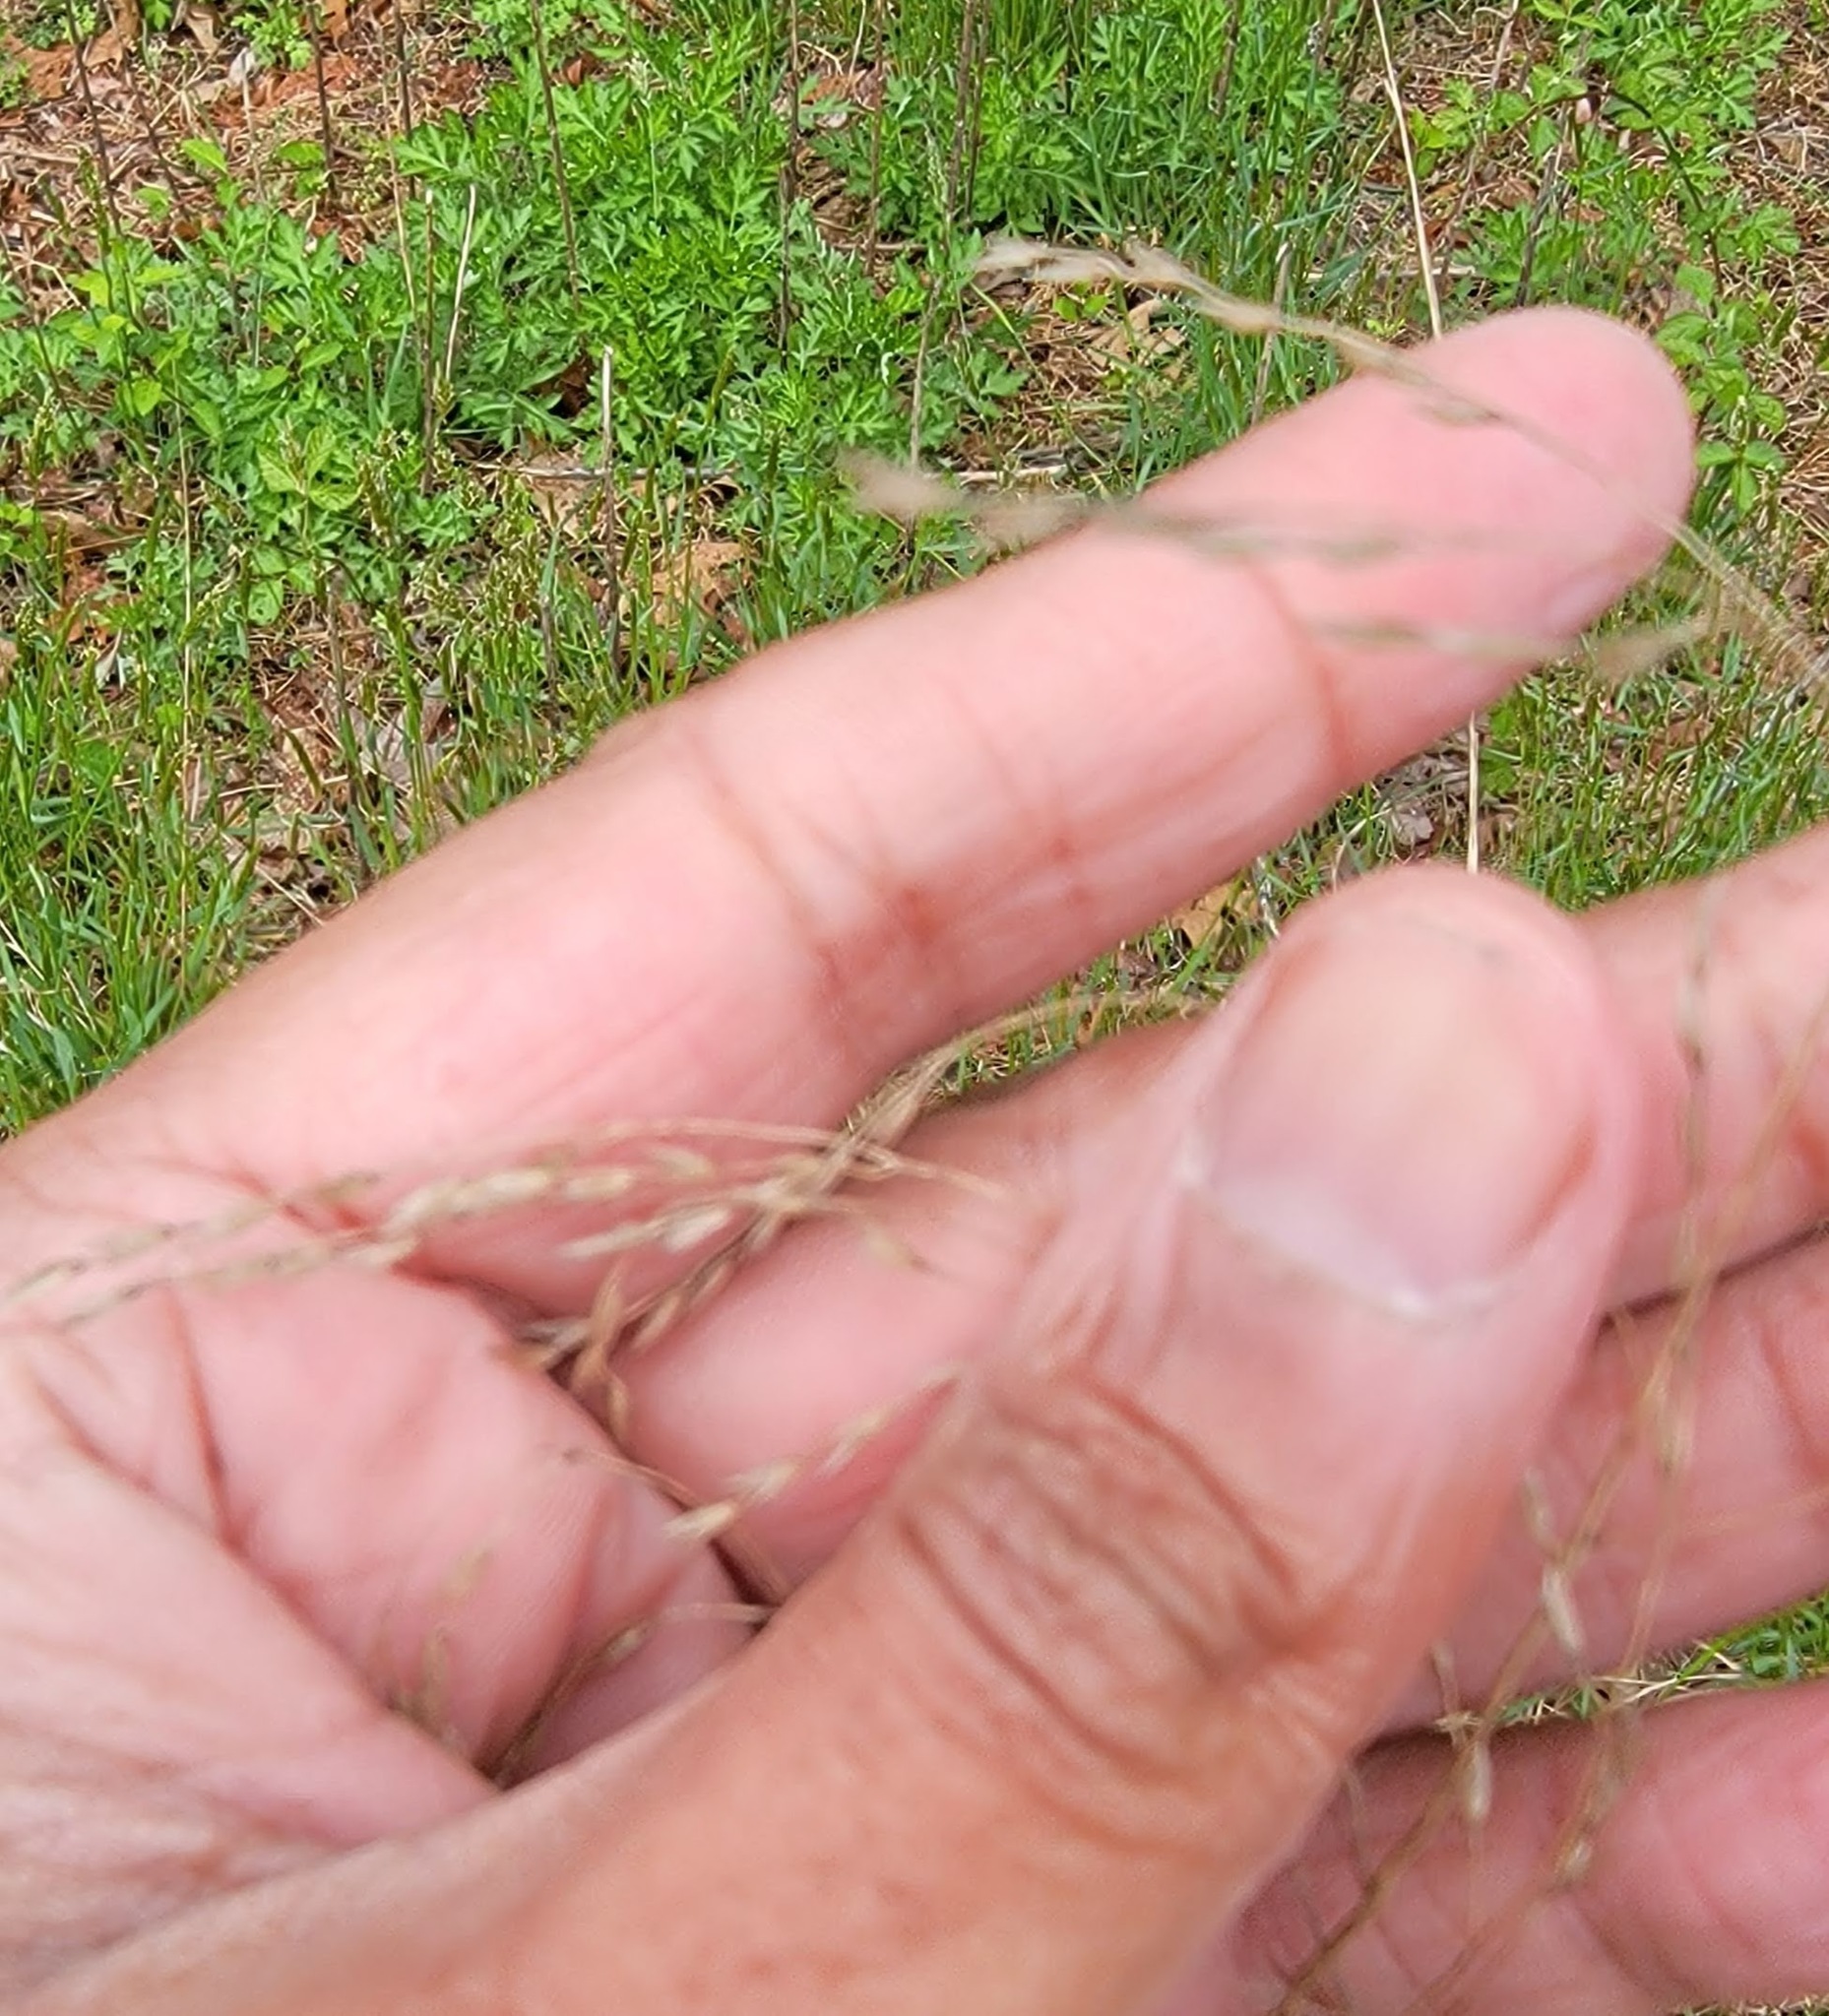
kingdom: Plantae
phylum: Tracheophyta
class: Liliopsida
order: Poales
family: Poaceae
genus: Tridens
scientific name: Tridens flavus
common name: Purpletop
